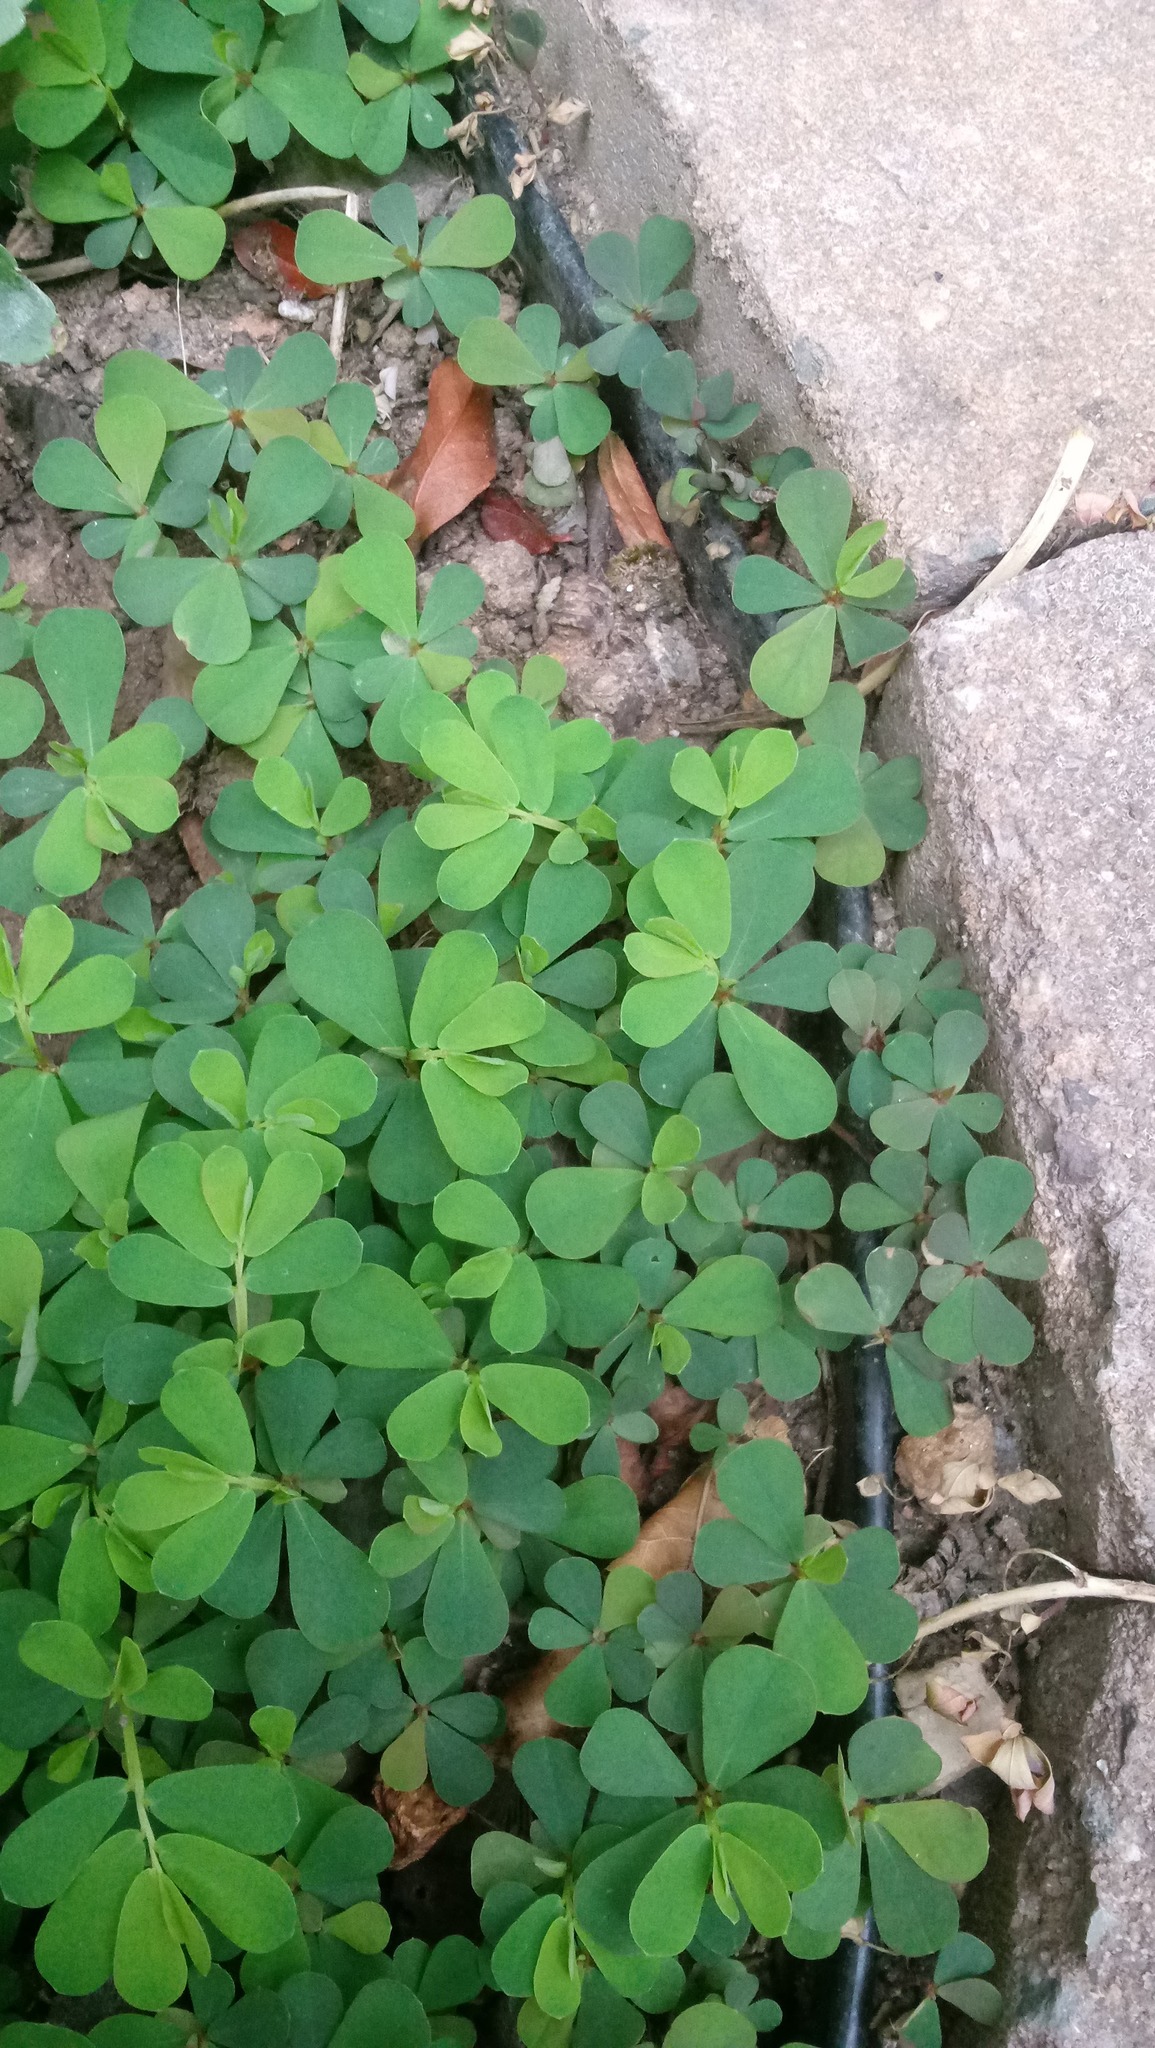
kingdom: Plantae
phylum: Tracheophyta
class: Magnoliopsida
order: Malpighiales
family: Phyllanthaceae
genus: Phyllanthus
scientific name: Phyllanthus urinaria
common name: Chamber bitter
